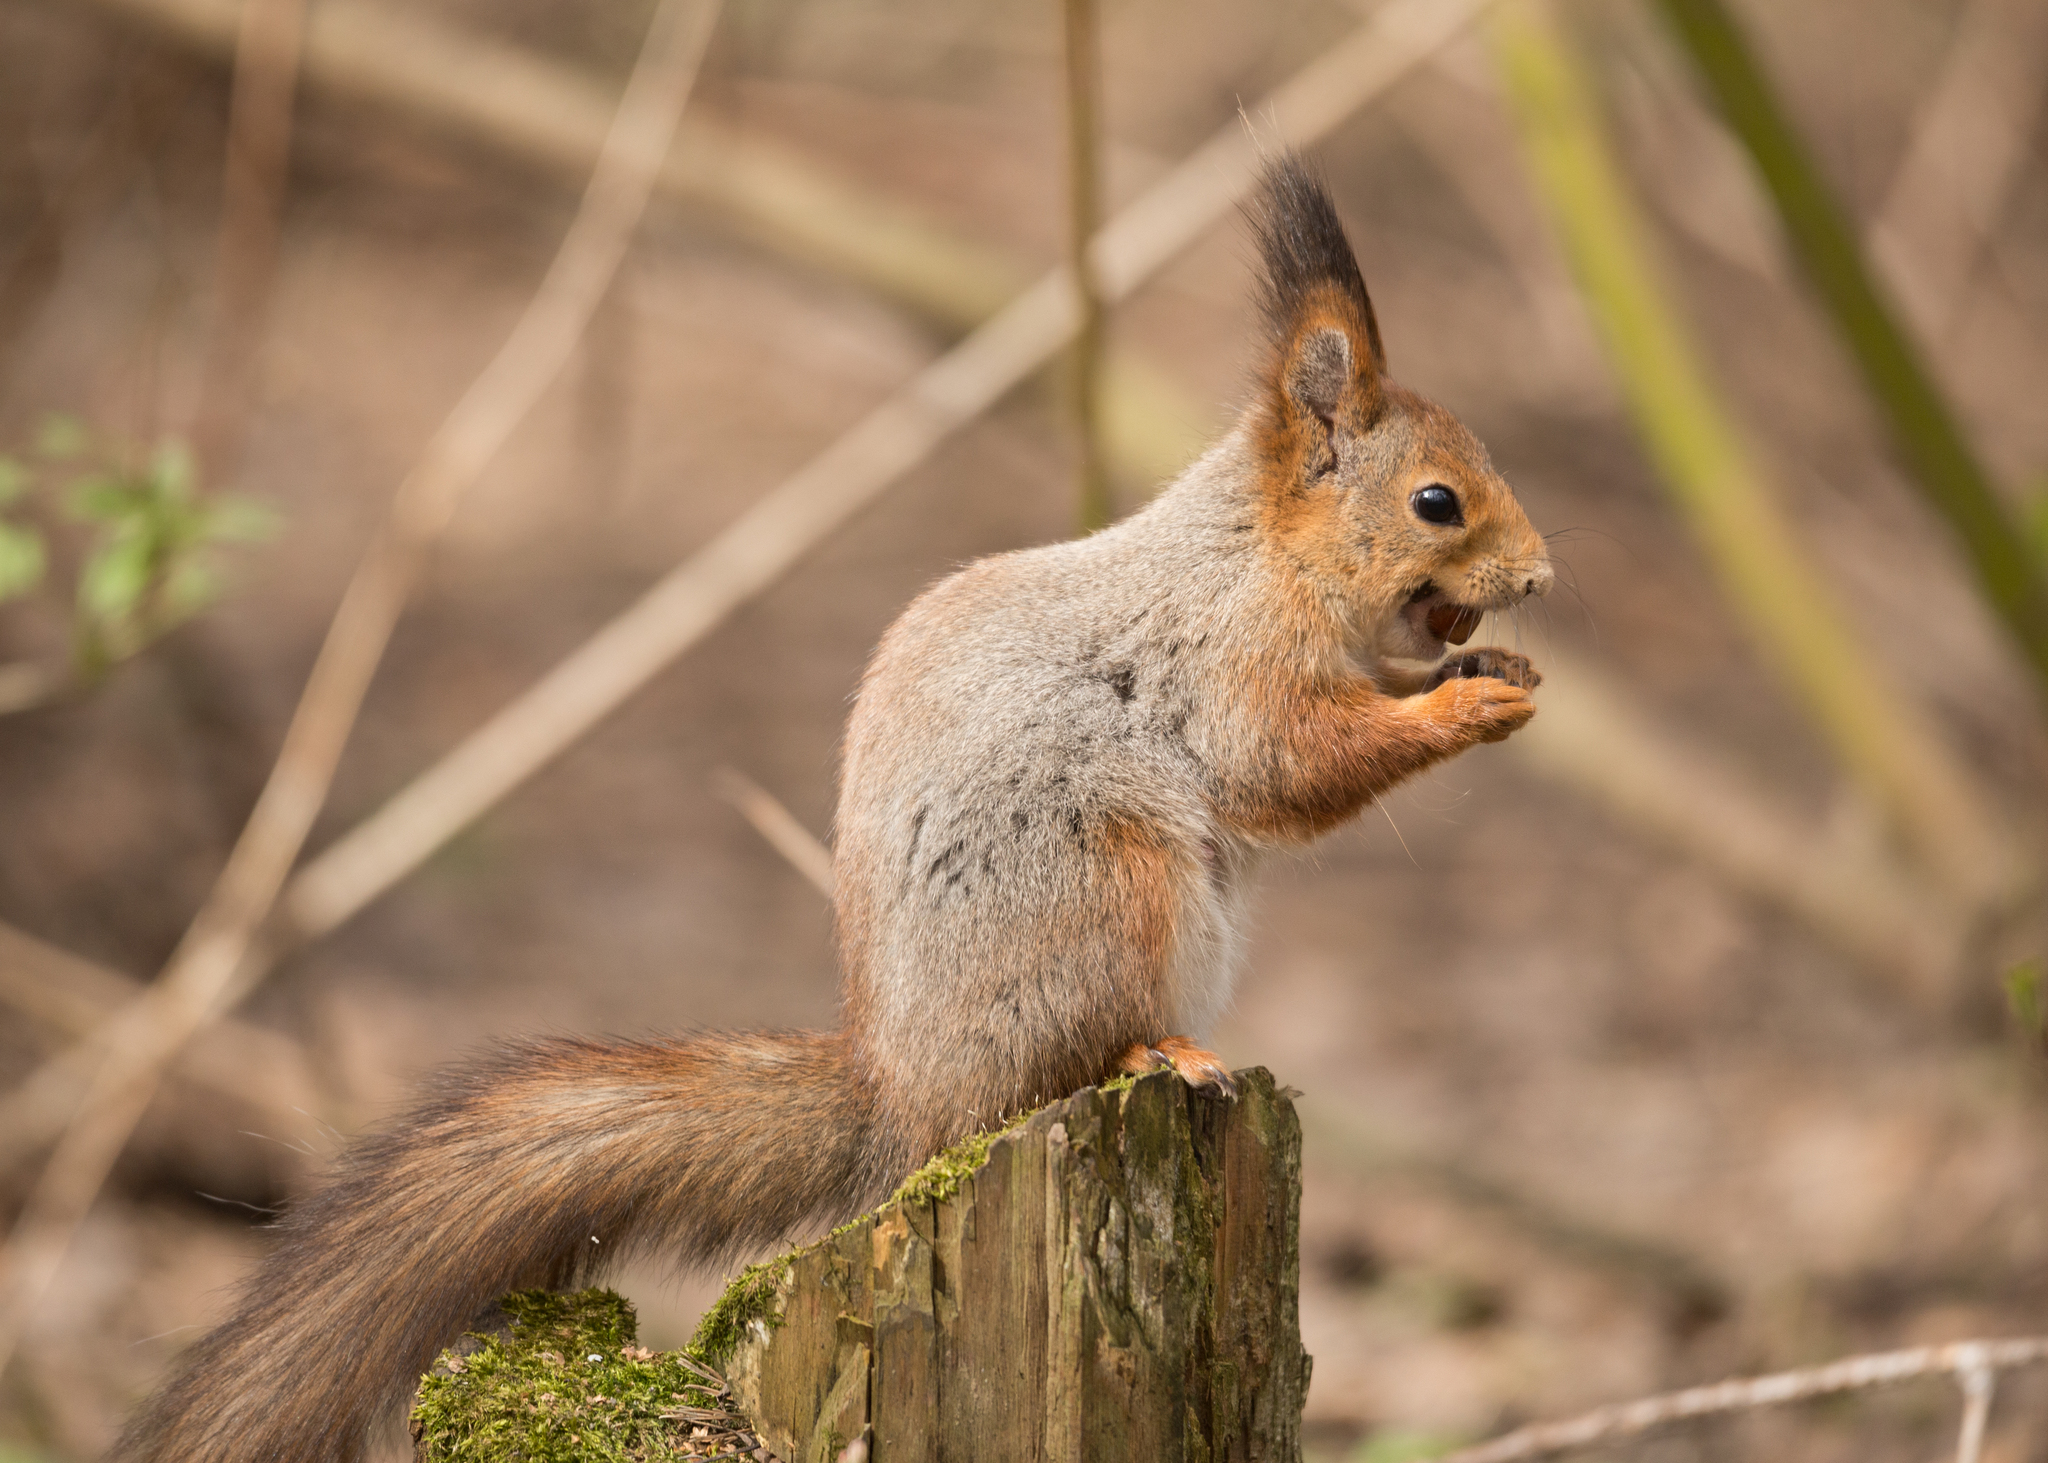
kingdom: Animalia
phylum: Chordata
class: Mammalia
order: Rodentia
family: Sciuridae
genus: Sciurus
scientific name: Sciurus vulgaris
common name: Eurasian red squirrel
